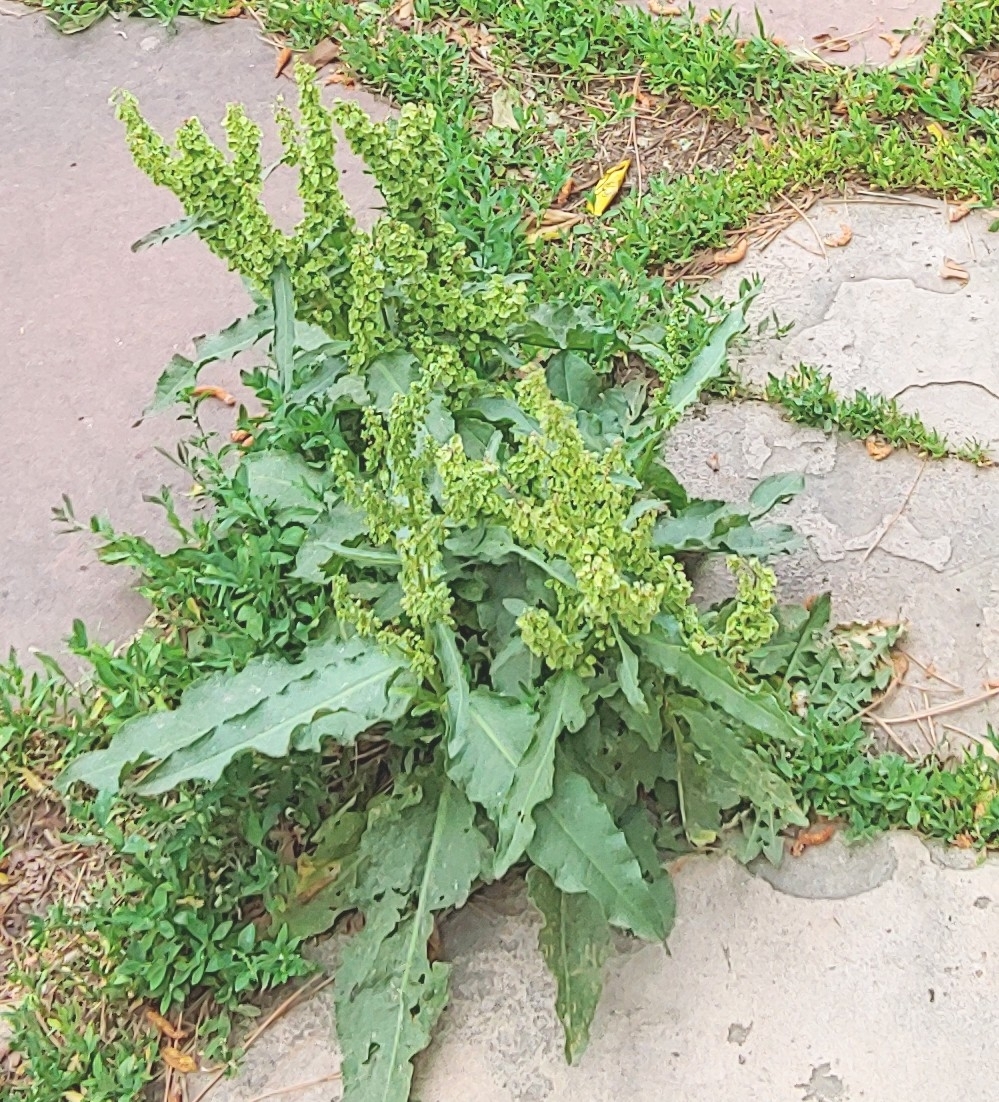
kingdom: Plantae
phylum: Tracheophyta
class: Magnoliopsida
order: Caryophyllales
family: Polygonaceae
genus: Rumex
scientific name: Rumex crispus
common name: Curled dock
